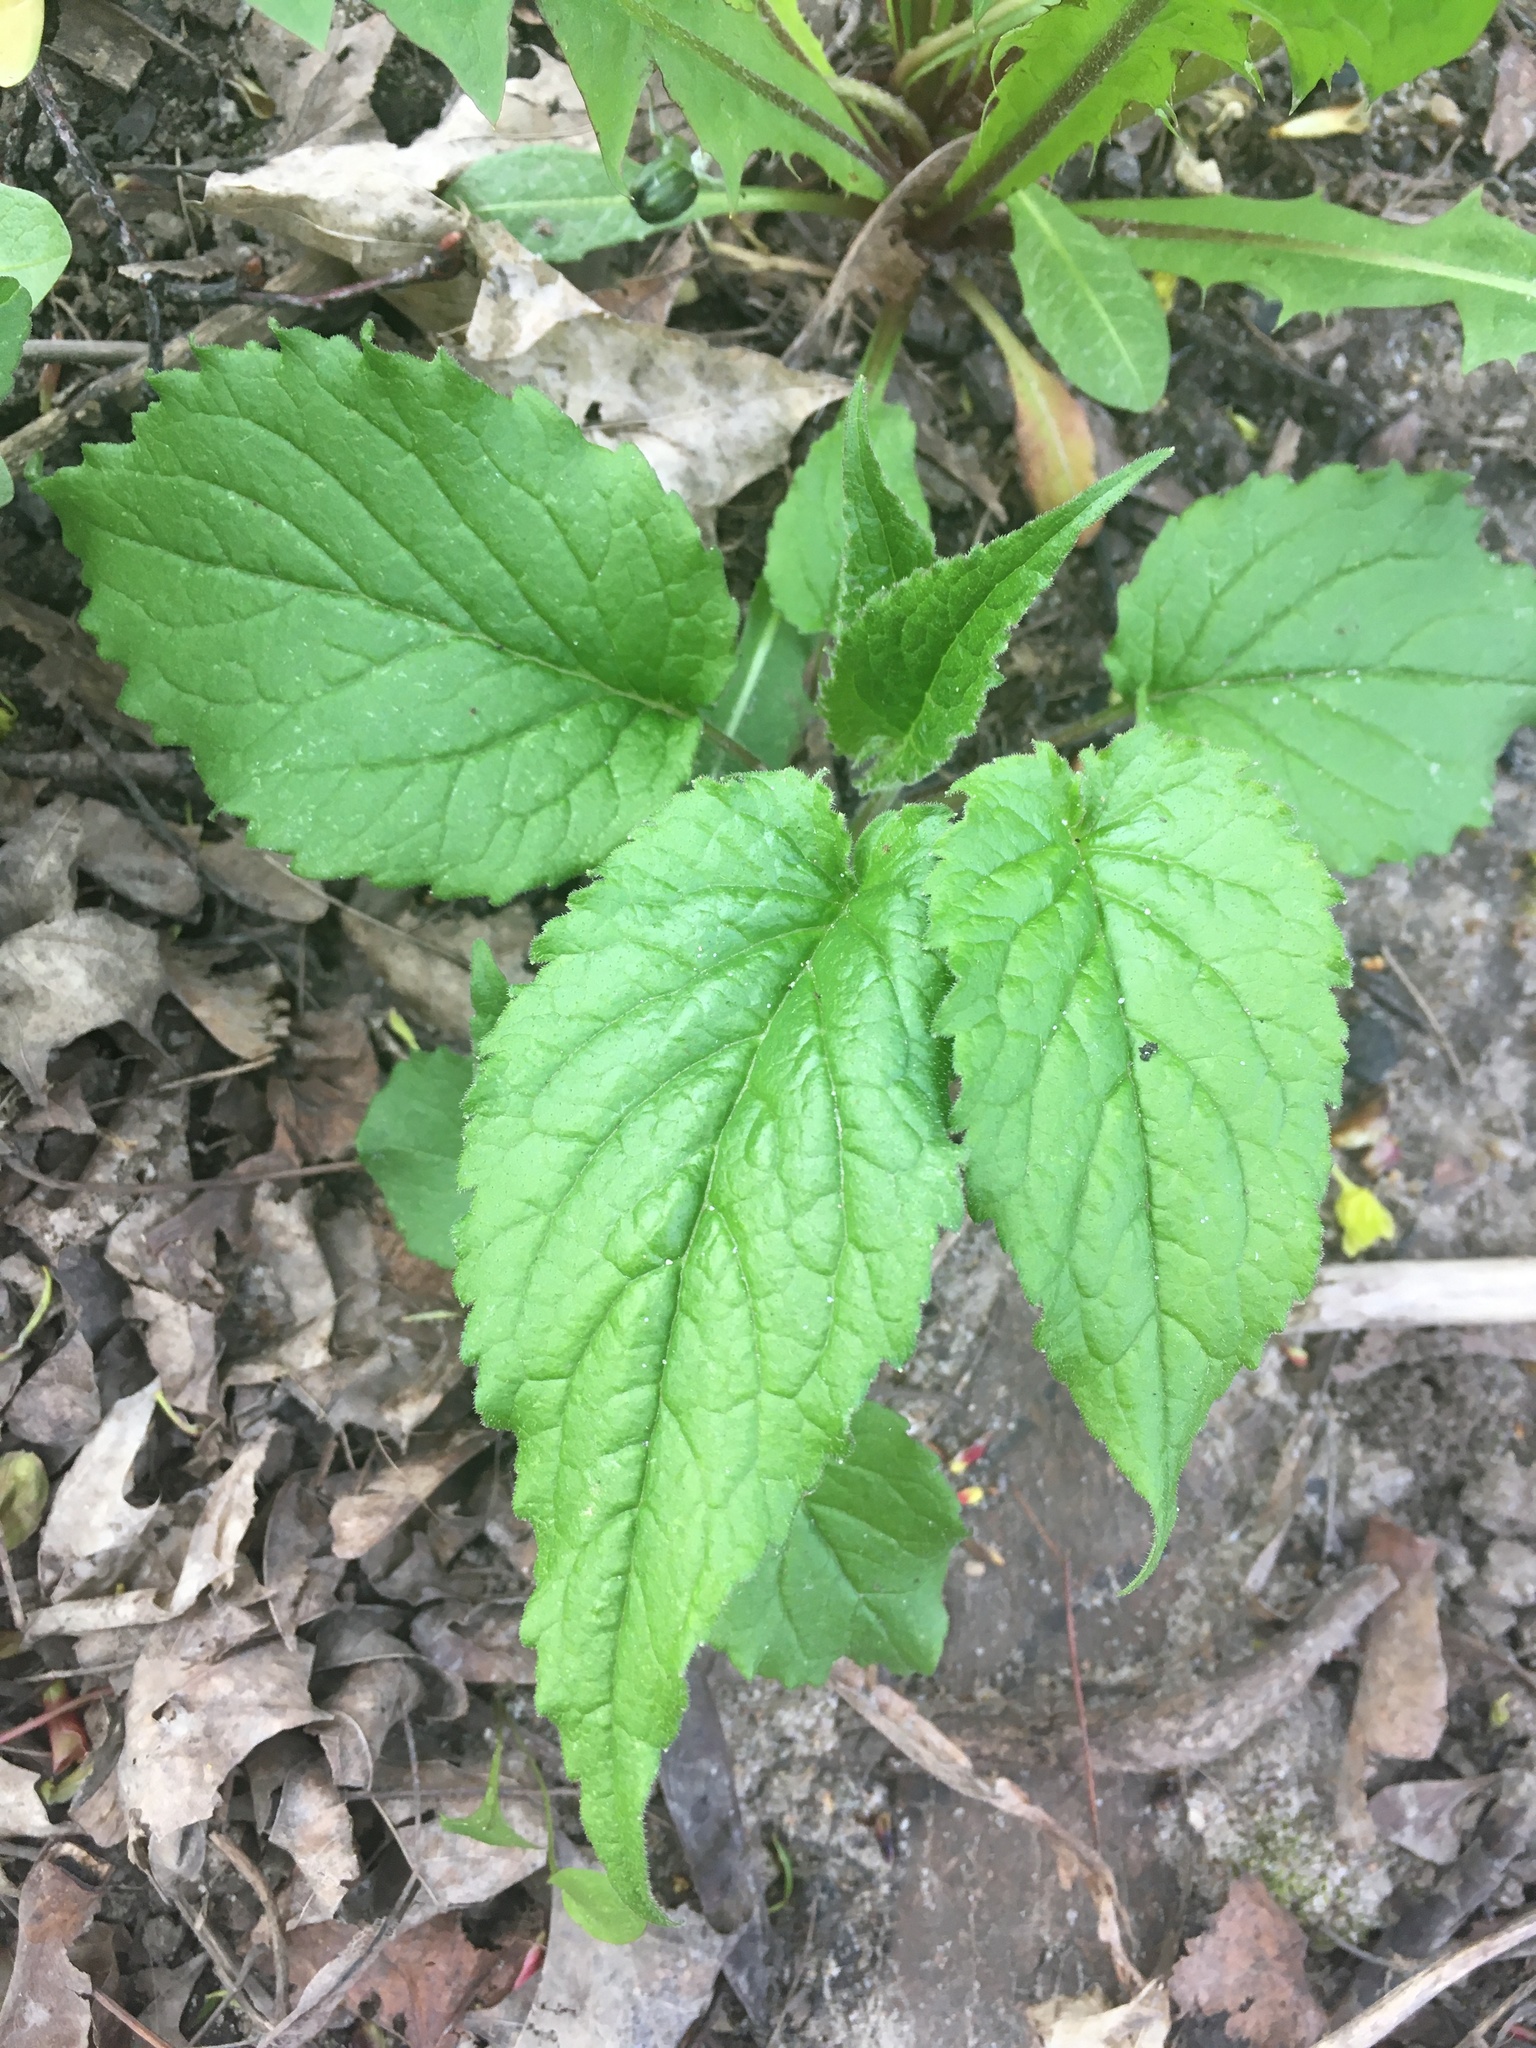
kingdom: Plantae
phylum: Tracheophyta
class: Magnoliopsida
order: Asterales
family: Campanulaceae
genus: Campanula
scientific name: Campanula latifolia
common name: Giant bellflower
